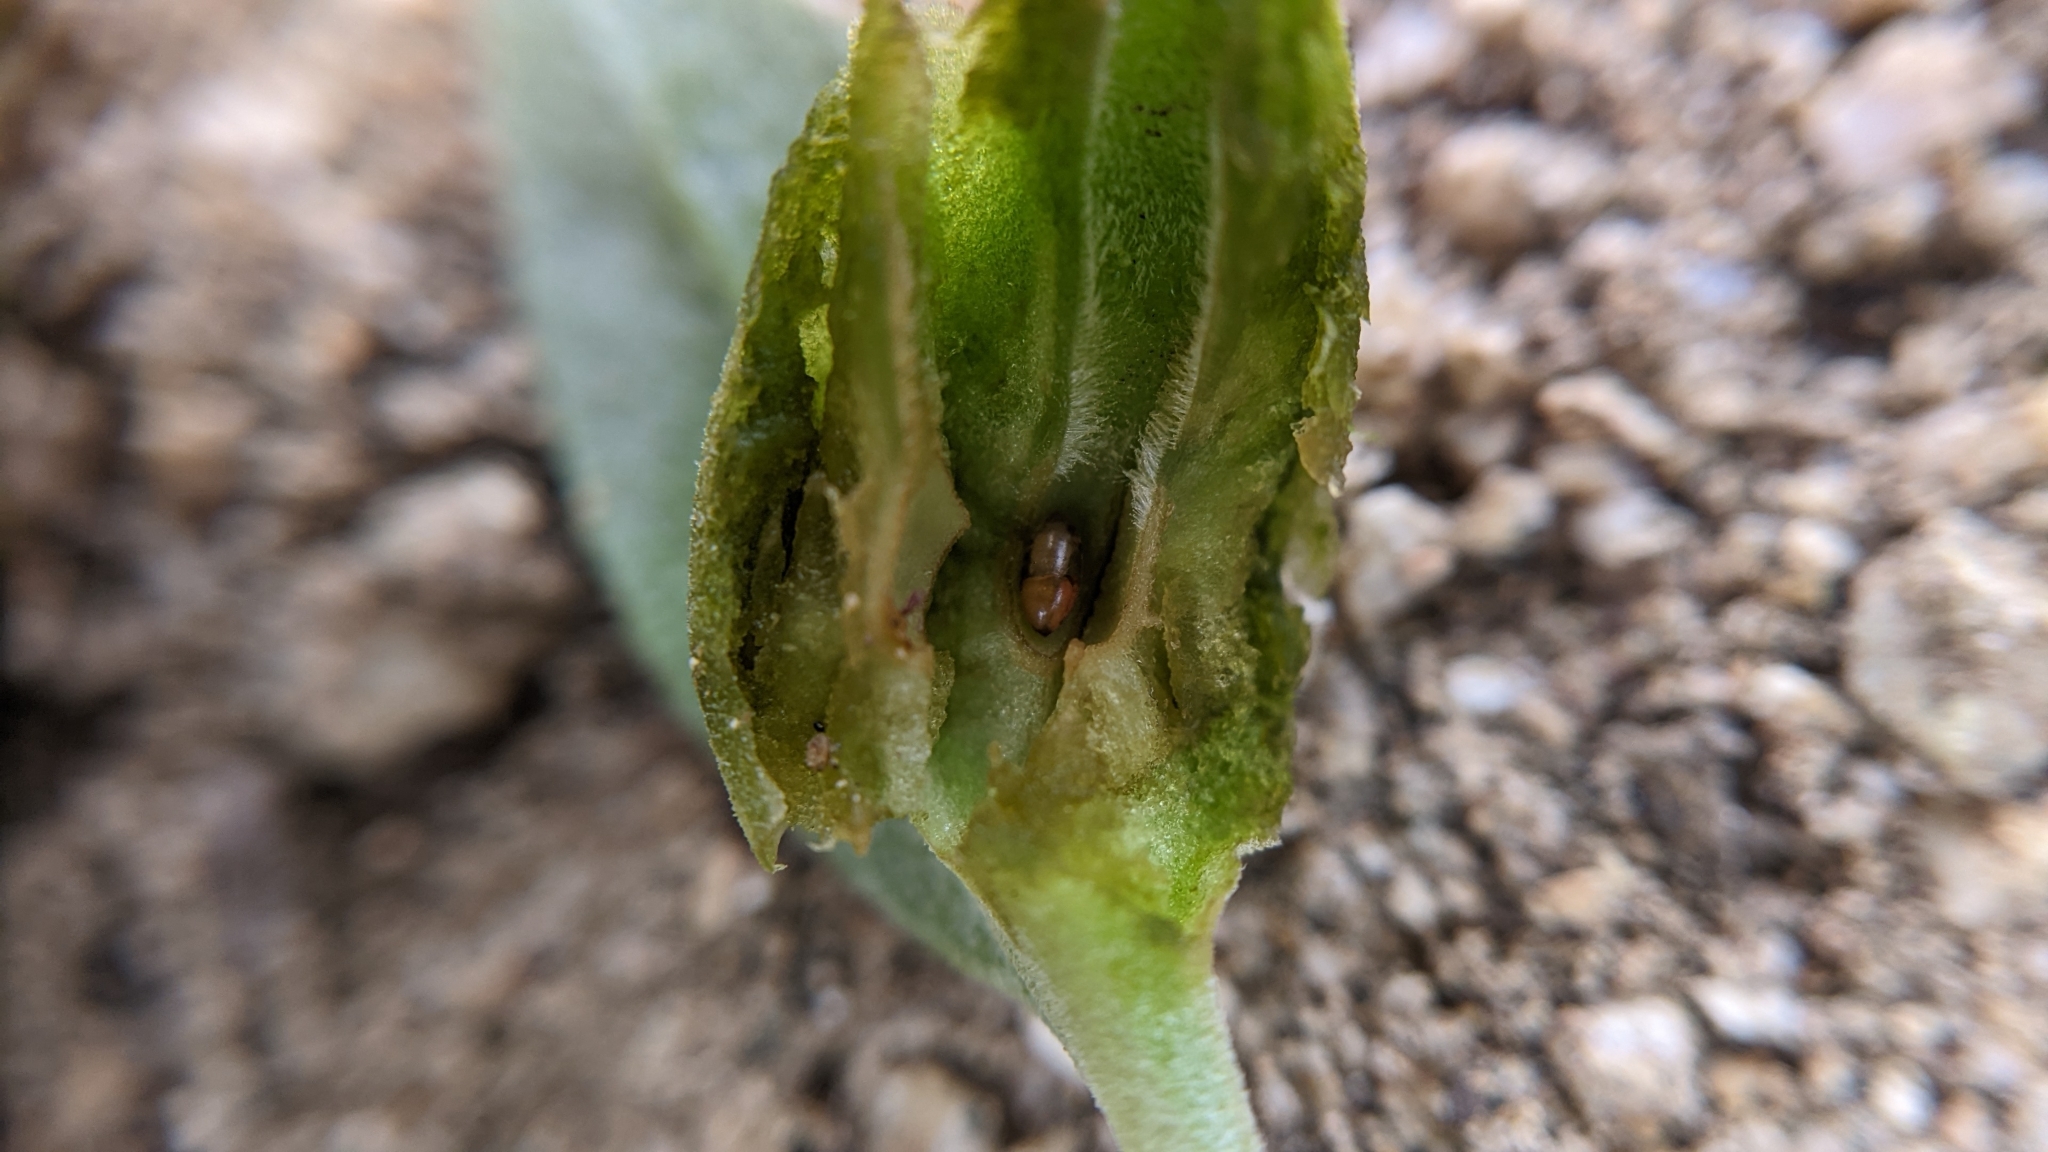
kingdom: Animalia
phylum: Arthropoda
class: Insecta
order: Diptera
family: Cecidomyiidae
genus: Rhopalomyia
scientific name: Rhopalomyia audibertiae
